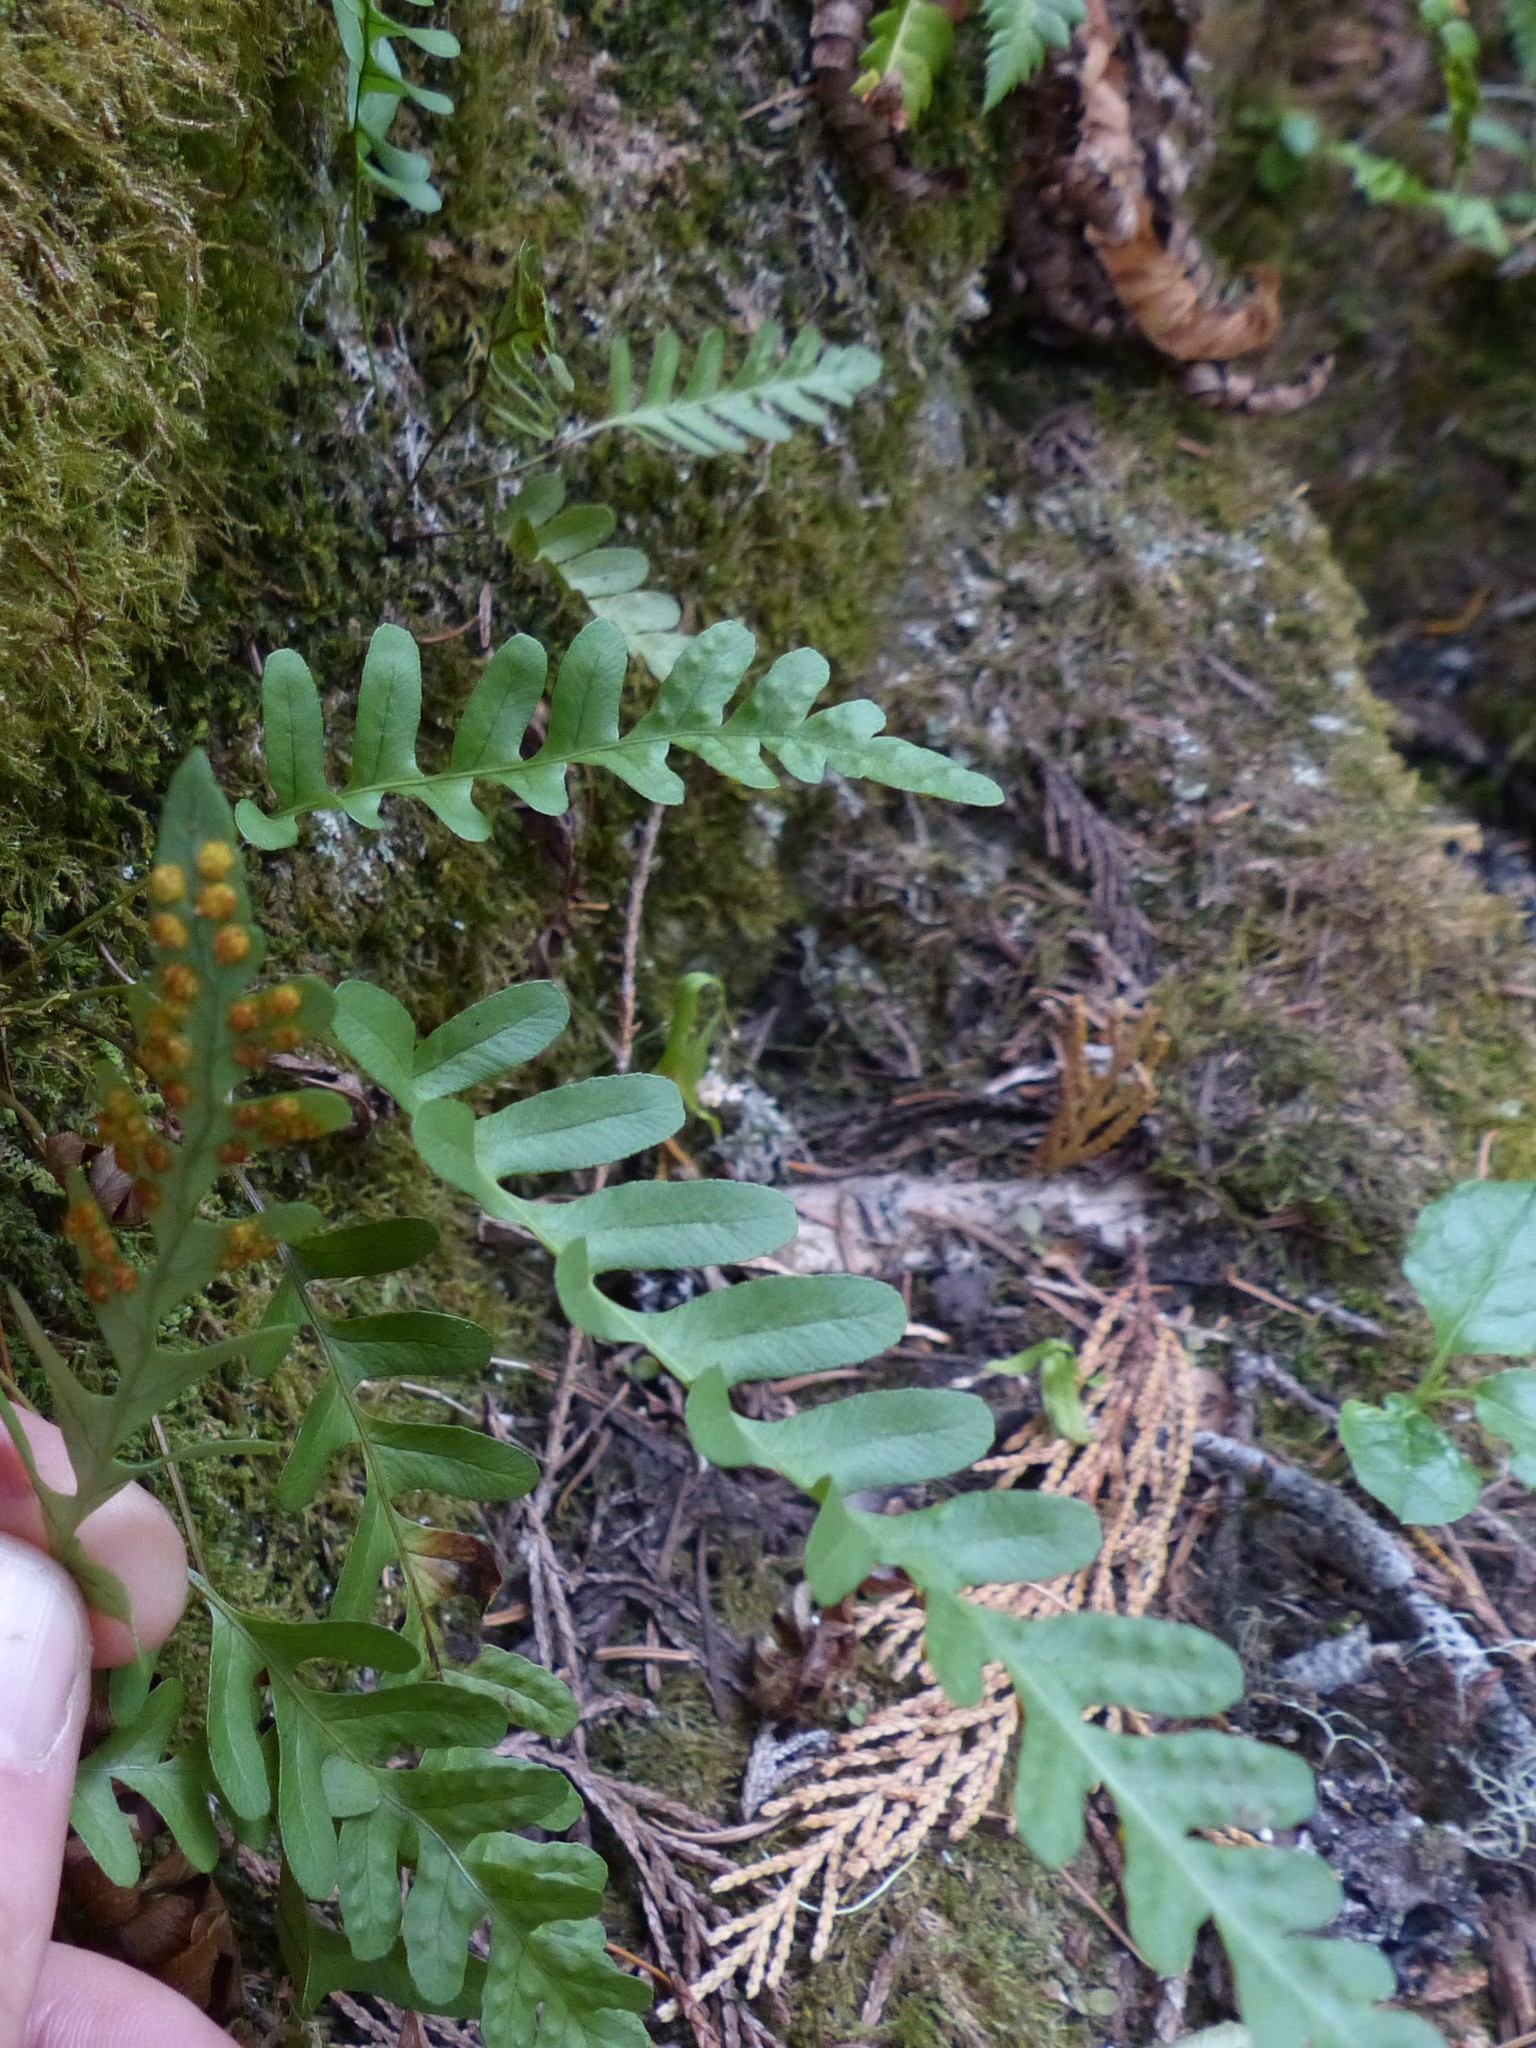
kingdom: Plantae
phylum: Tracheophyta
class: Polypodiopsida
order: Polypodiales
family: Polypodiaceae
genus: Polypodium
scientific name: Polypodium amorphum
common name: Pacific polypody
